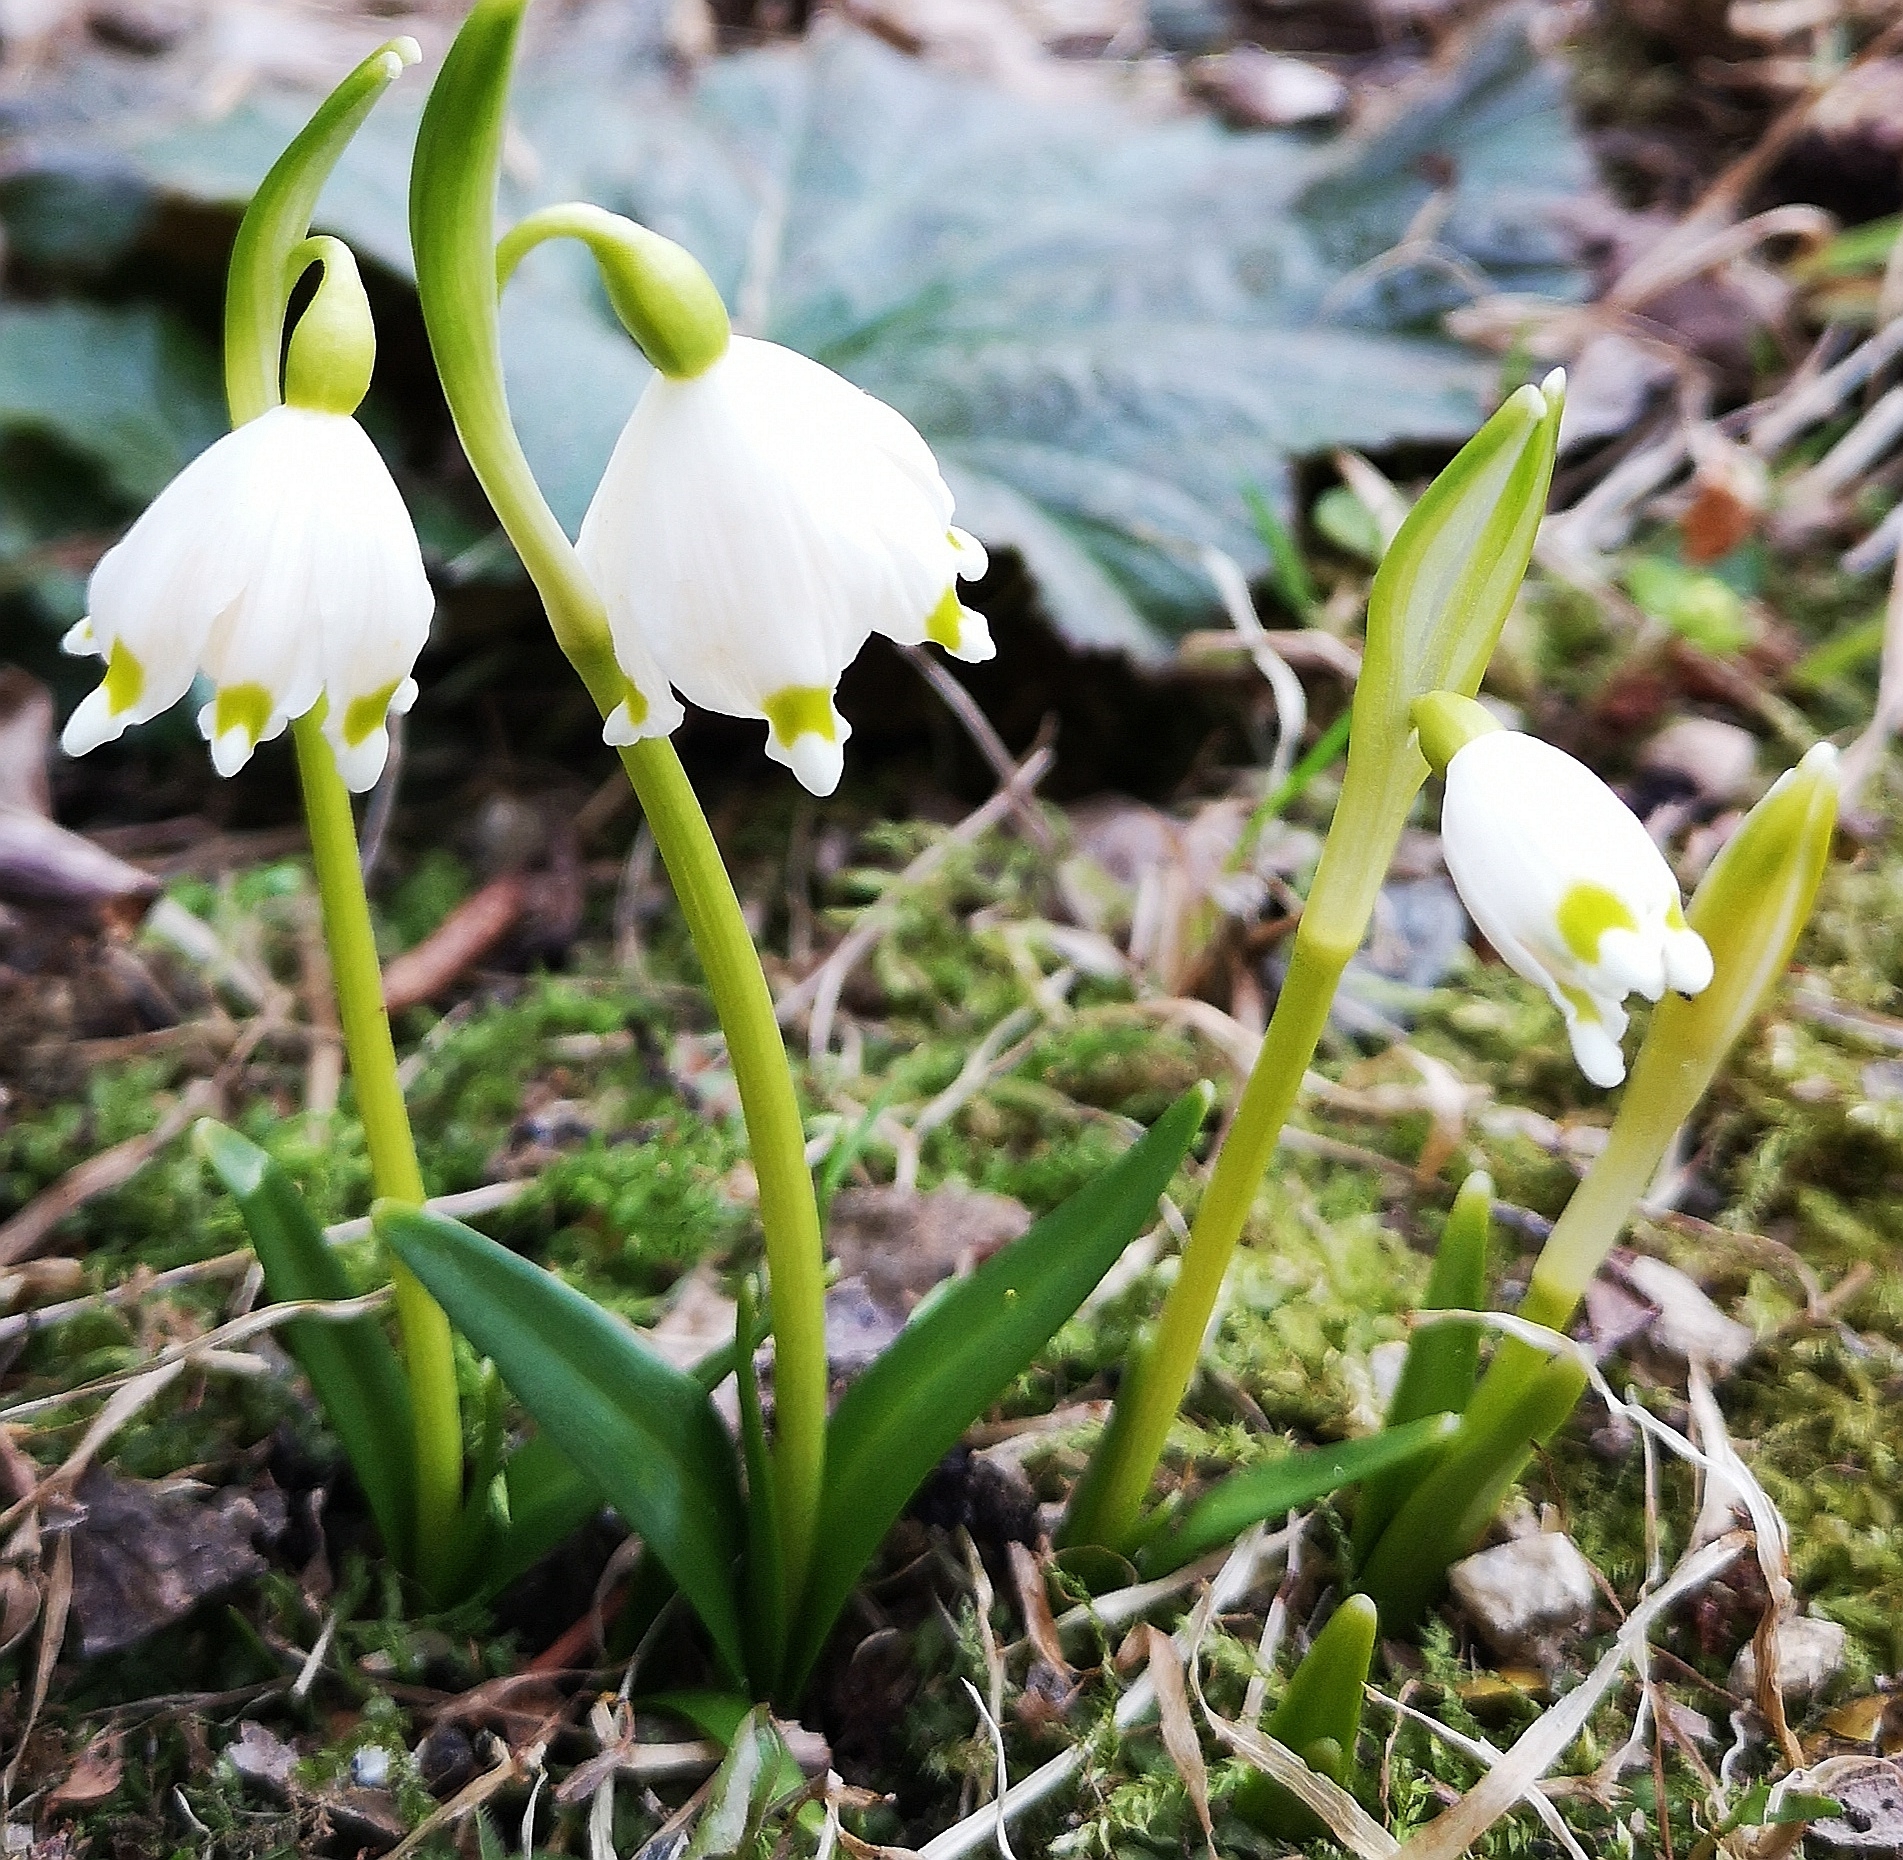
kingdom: Plantae
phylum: Tracheophyta
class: Liliopsida
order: Asparagales
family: Amaryllidaceae
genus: Leucojum
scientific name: Leucojum vernum
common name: Spring snowflake
